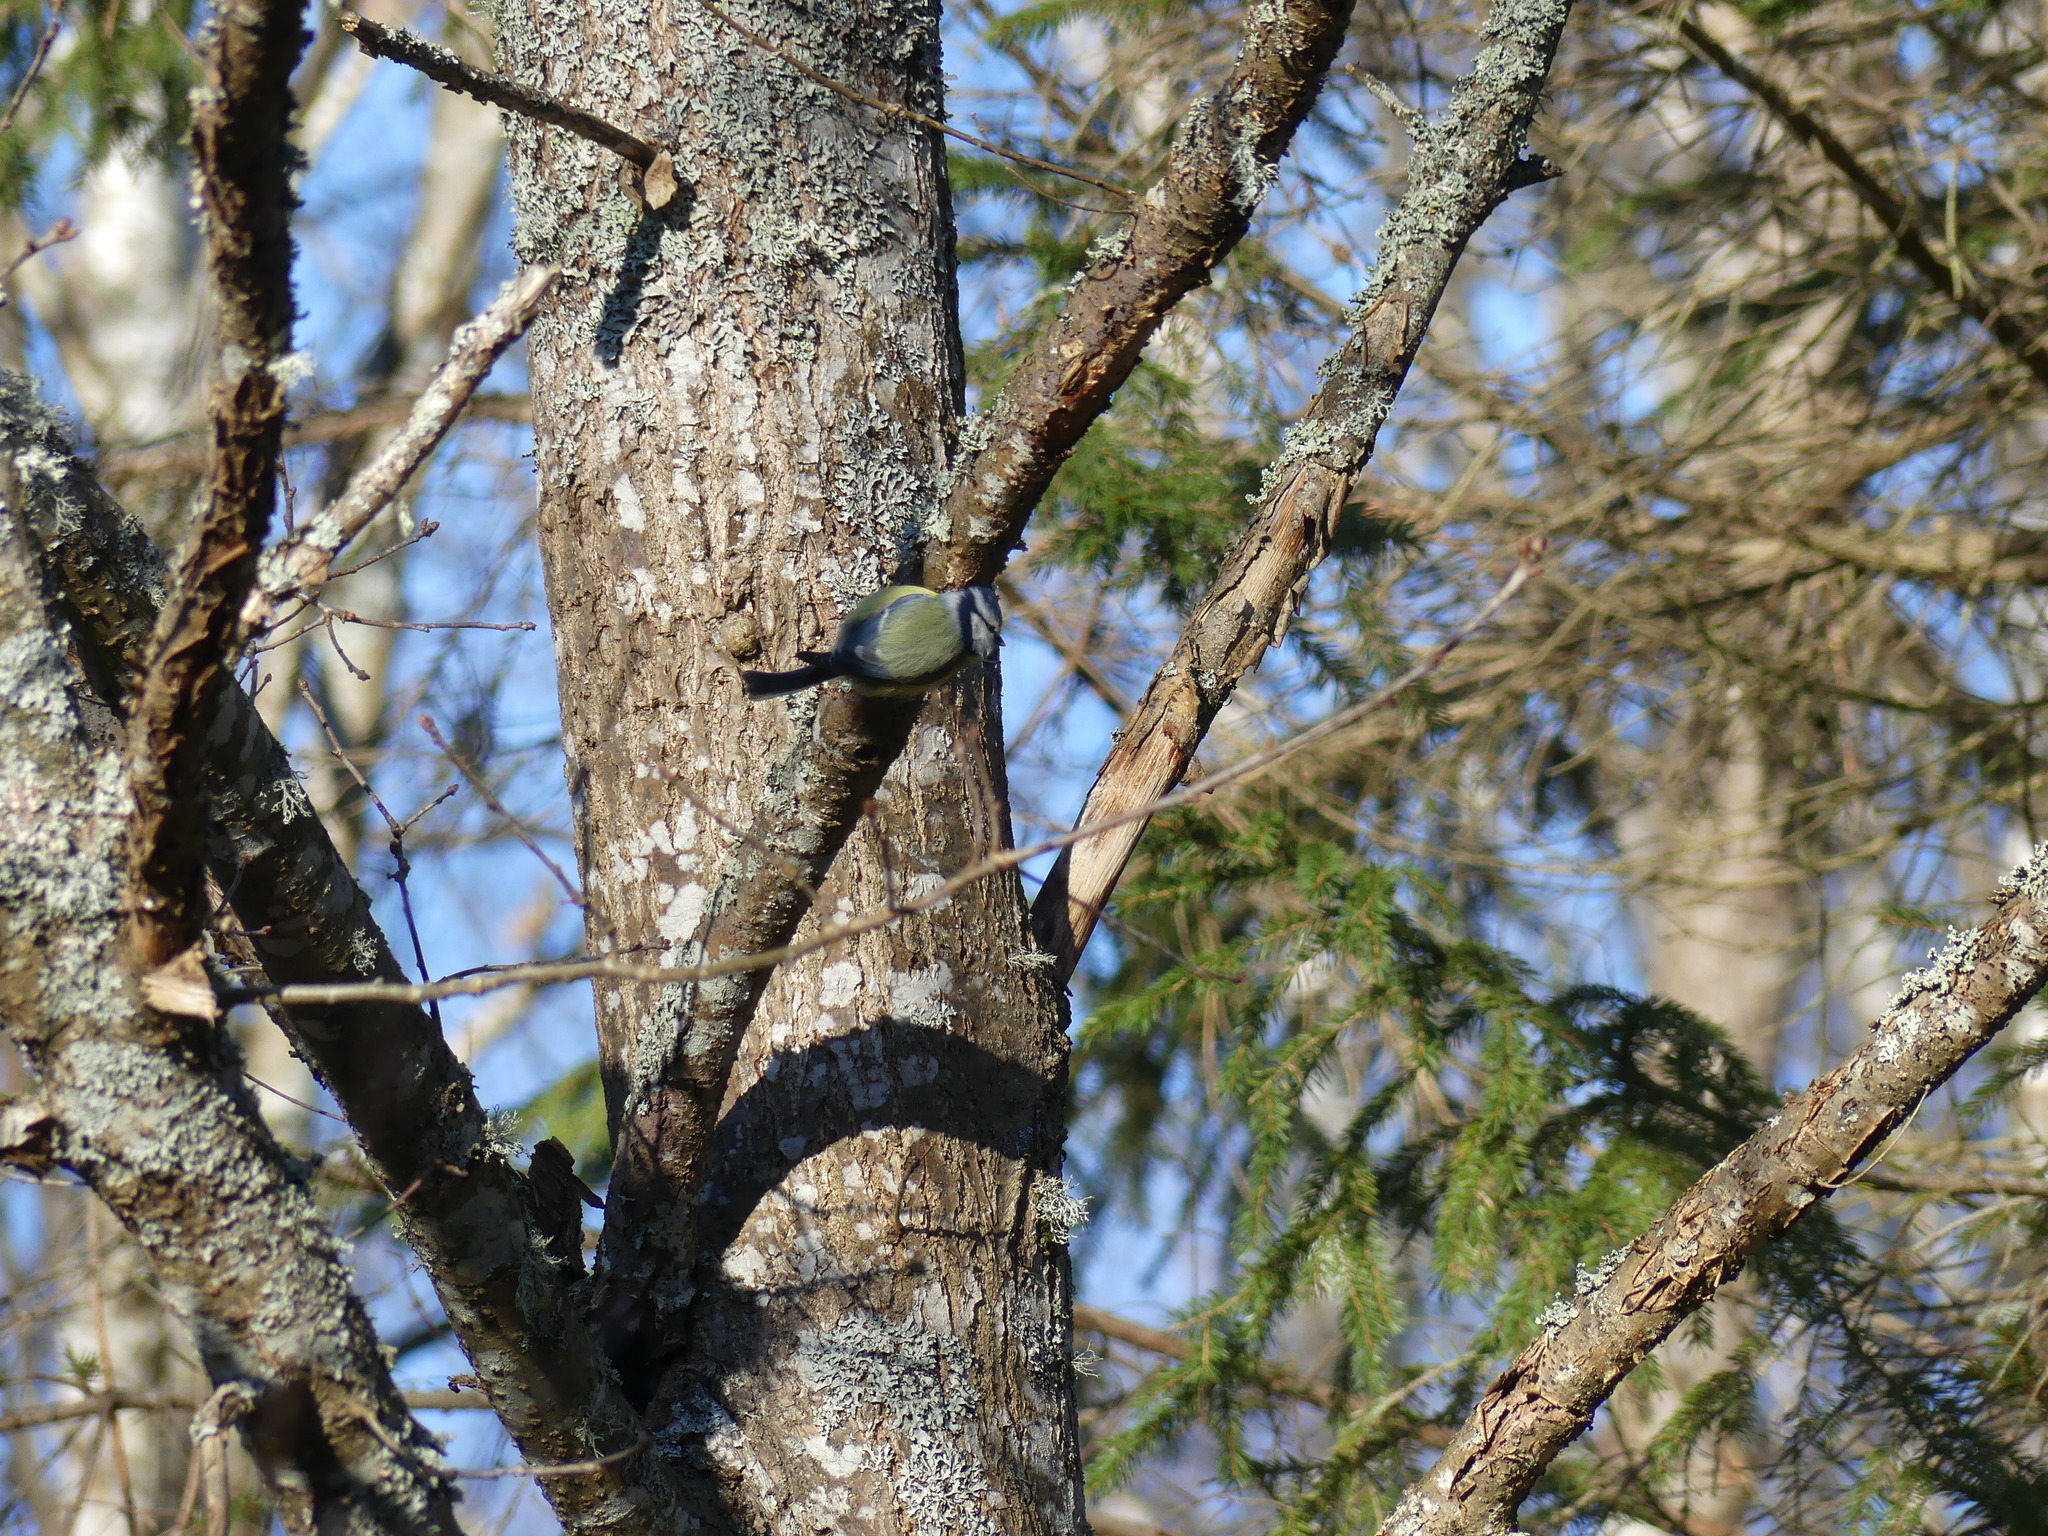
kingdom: Animalia
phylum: Chordata
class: Aves
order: Passeriformes
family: Paridae
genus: Cyanistes
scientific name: Cyanistes caeruleus
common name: Eurasian blue tit
